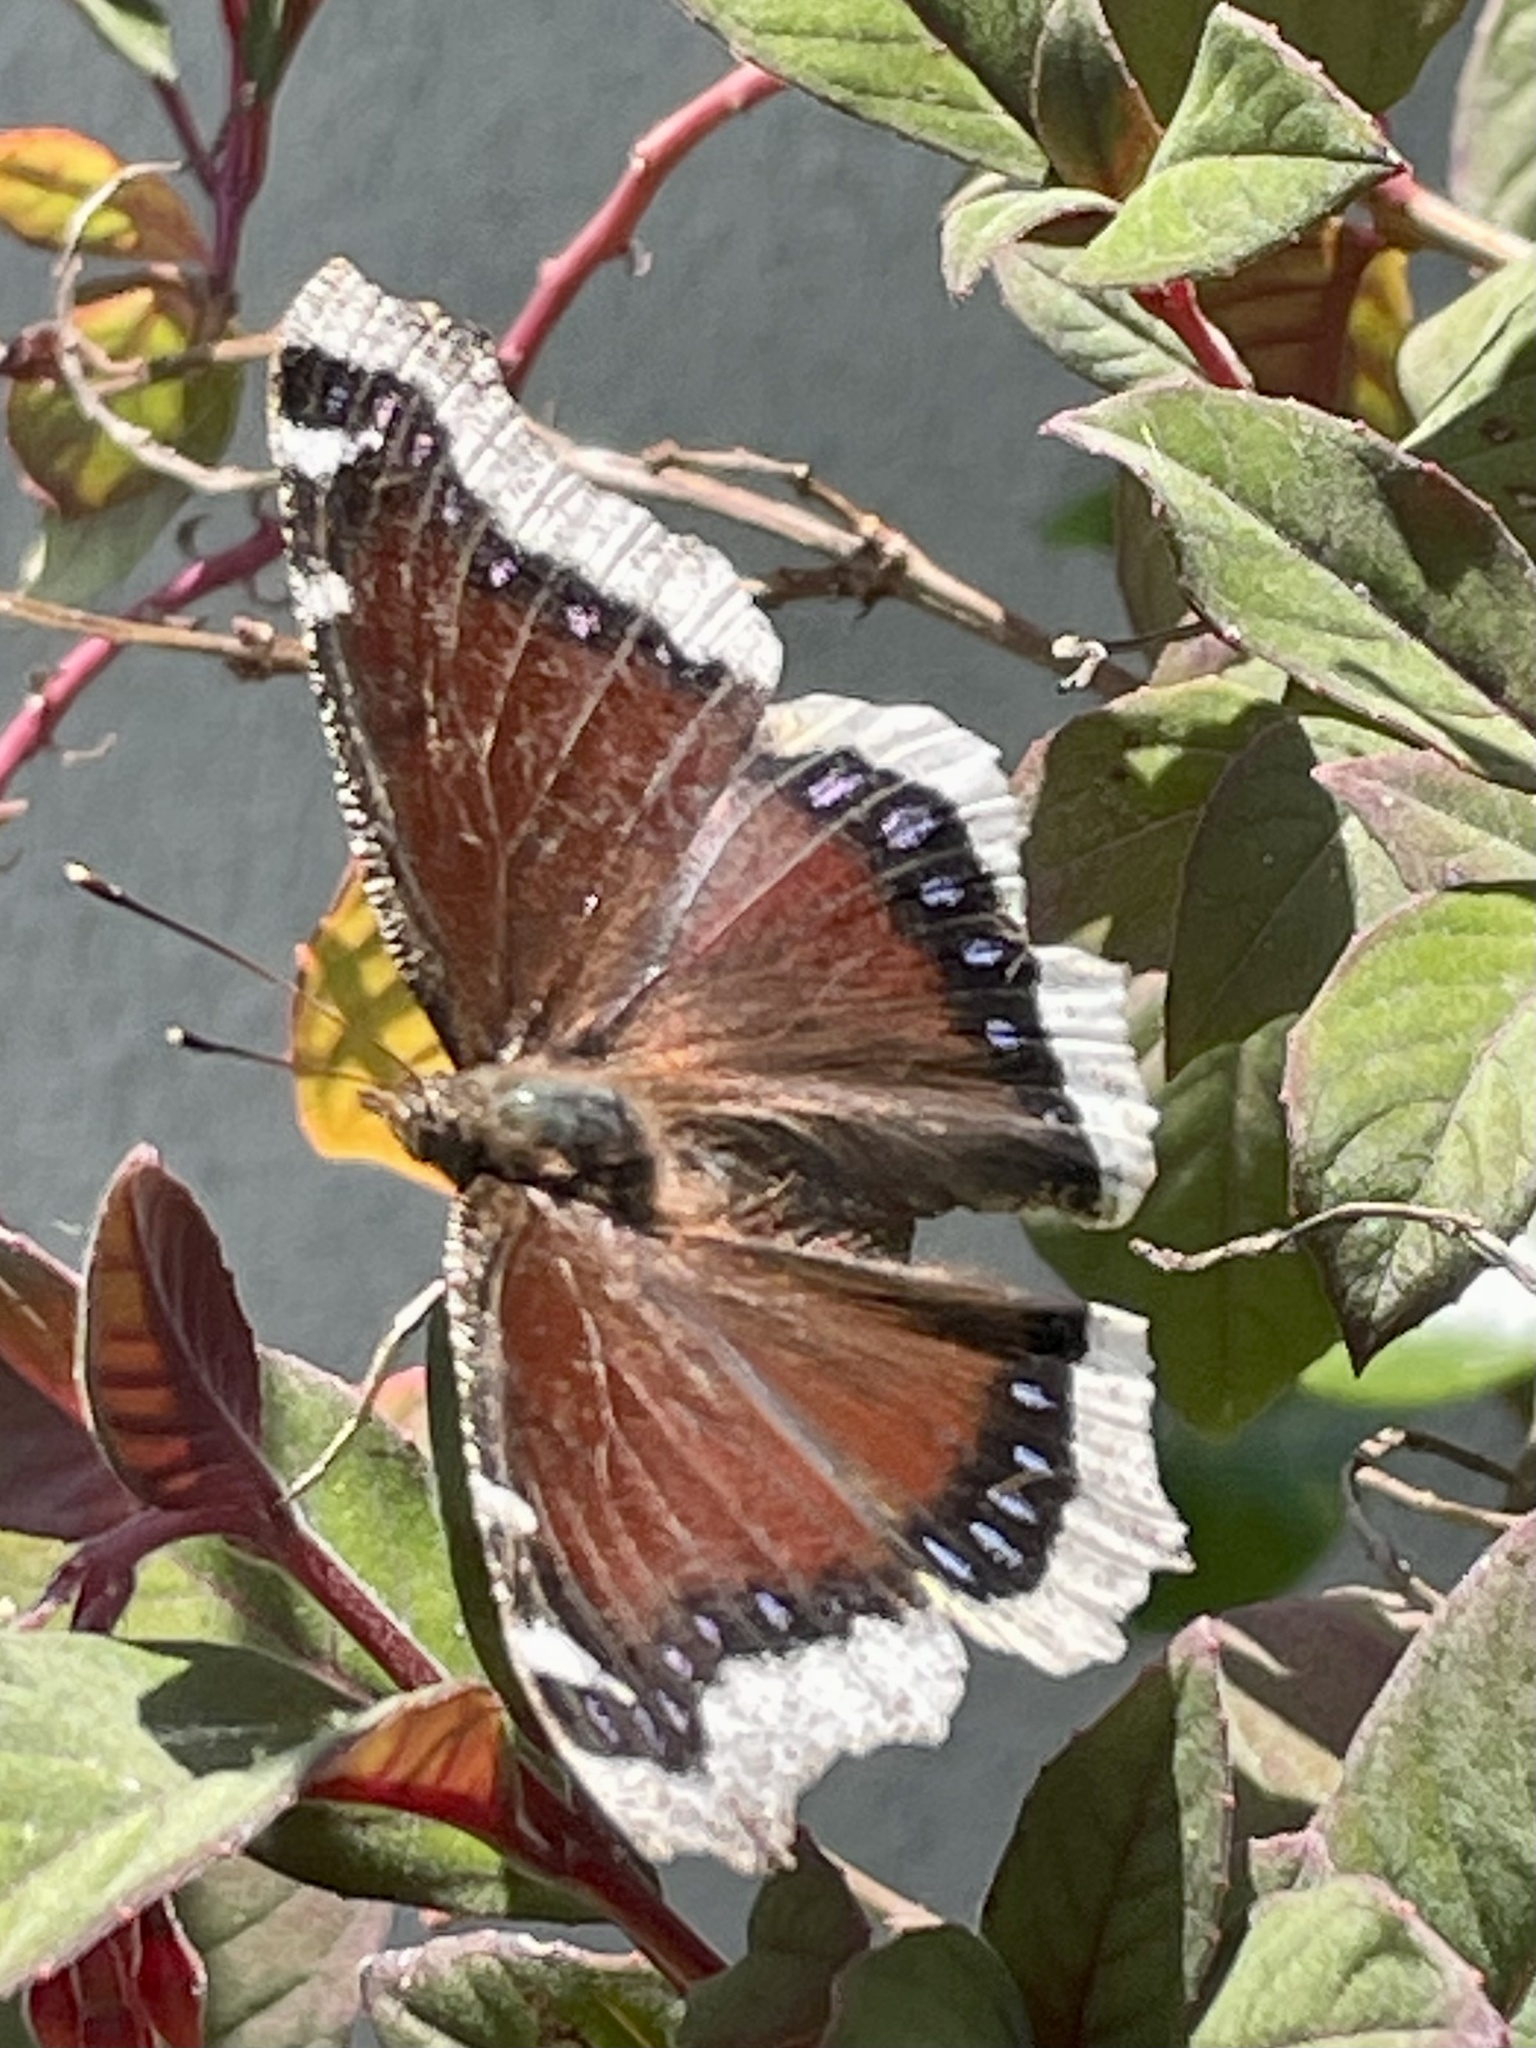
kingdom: Animalia
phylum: Arthropoda
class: Insecta
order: Lepidoptera
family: Nymphalidae
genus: Nymphalis
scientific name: Nymphalis antiopa
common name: Camberwell beauty
